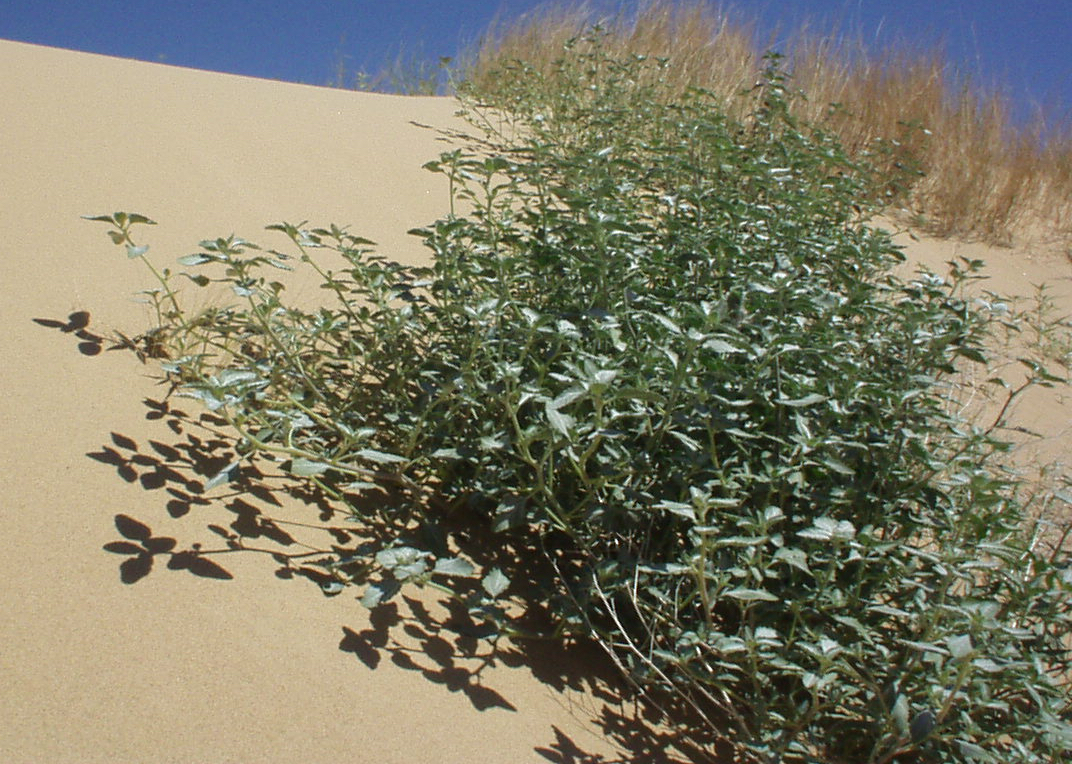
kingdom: Plantae
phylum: Tracheophyta
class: Magnoliopsida
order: Asterales
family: Asteraceae
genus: Dicoria
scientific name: Dicoria canescens
